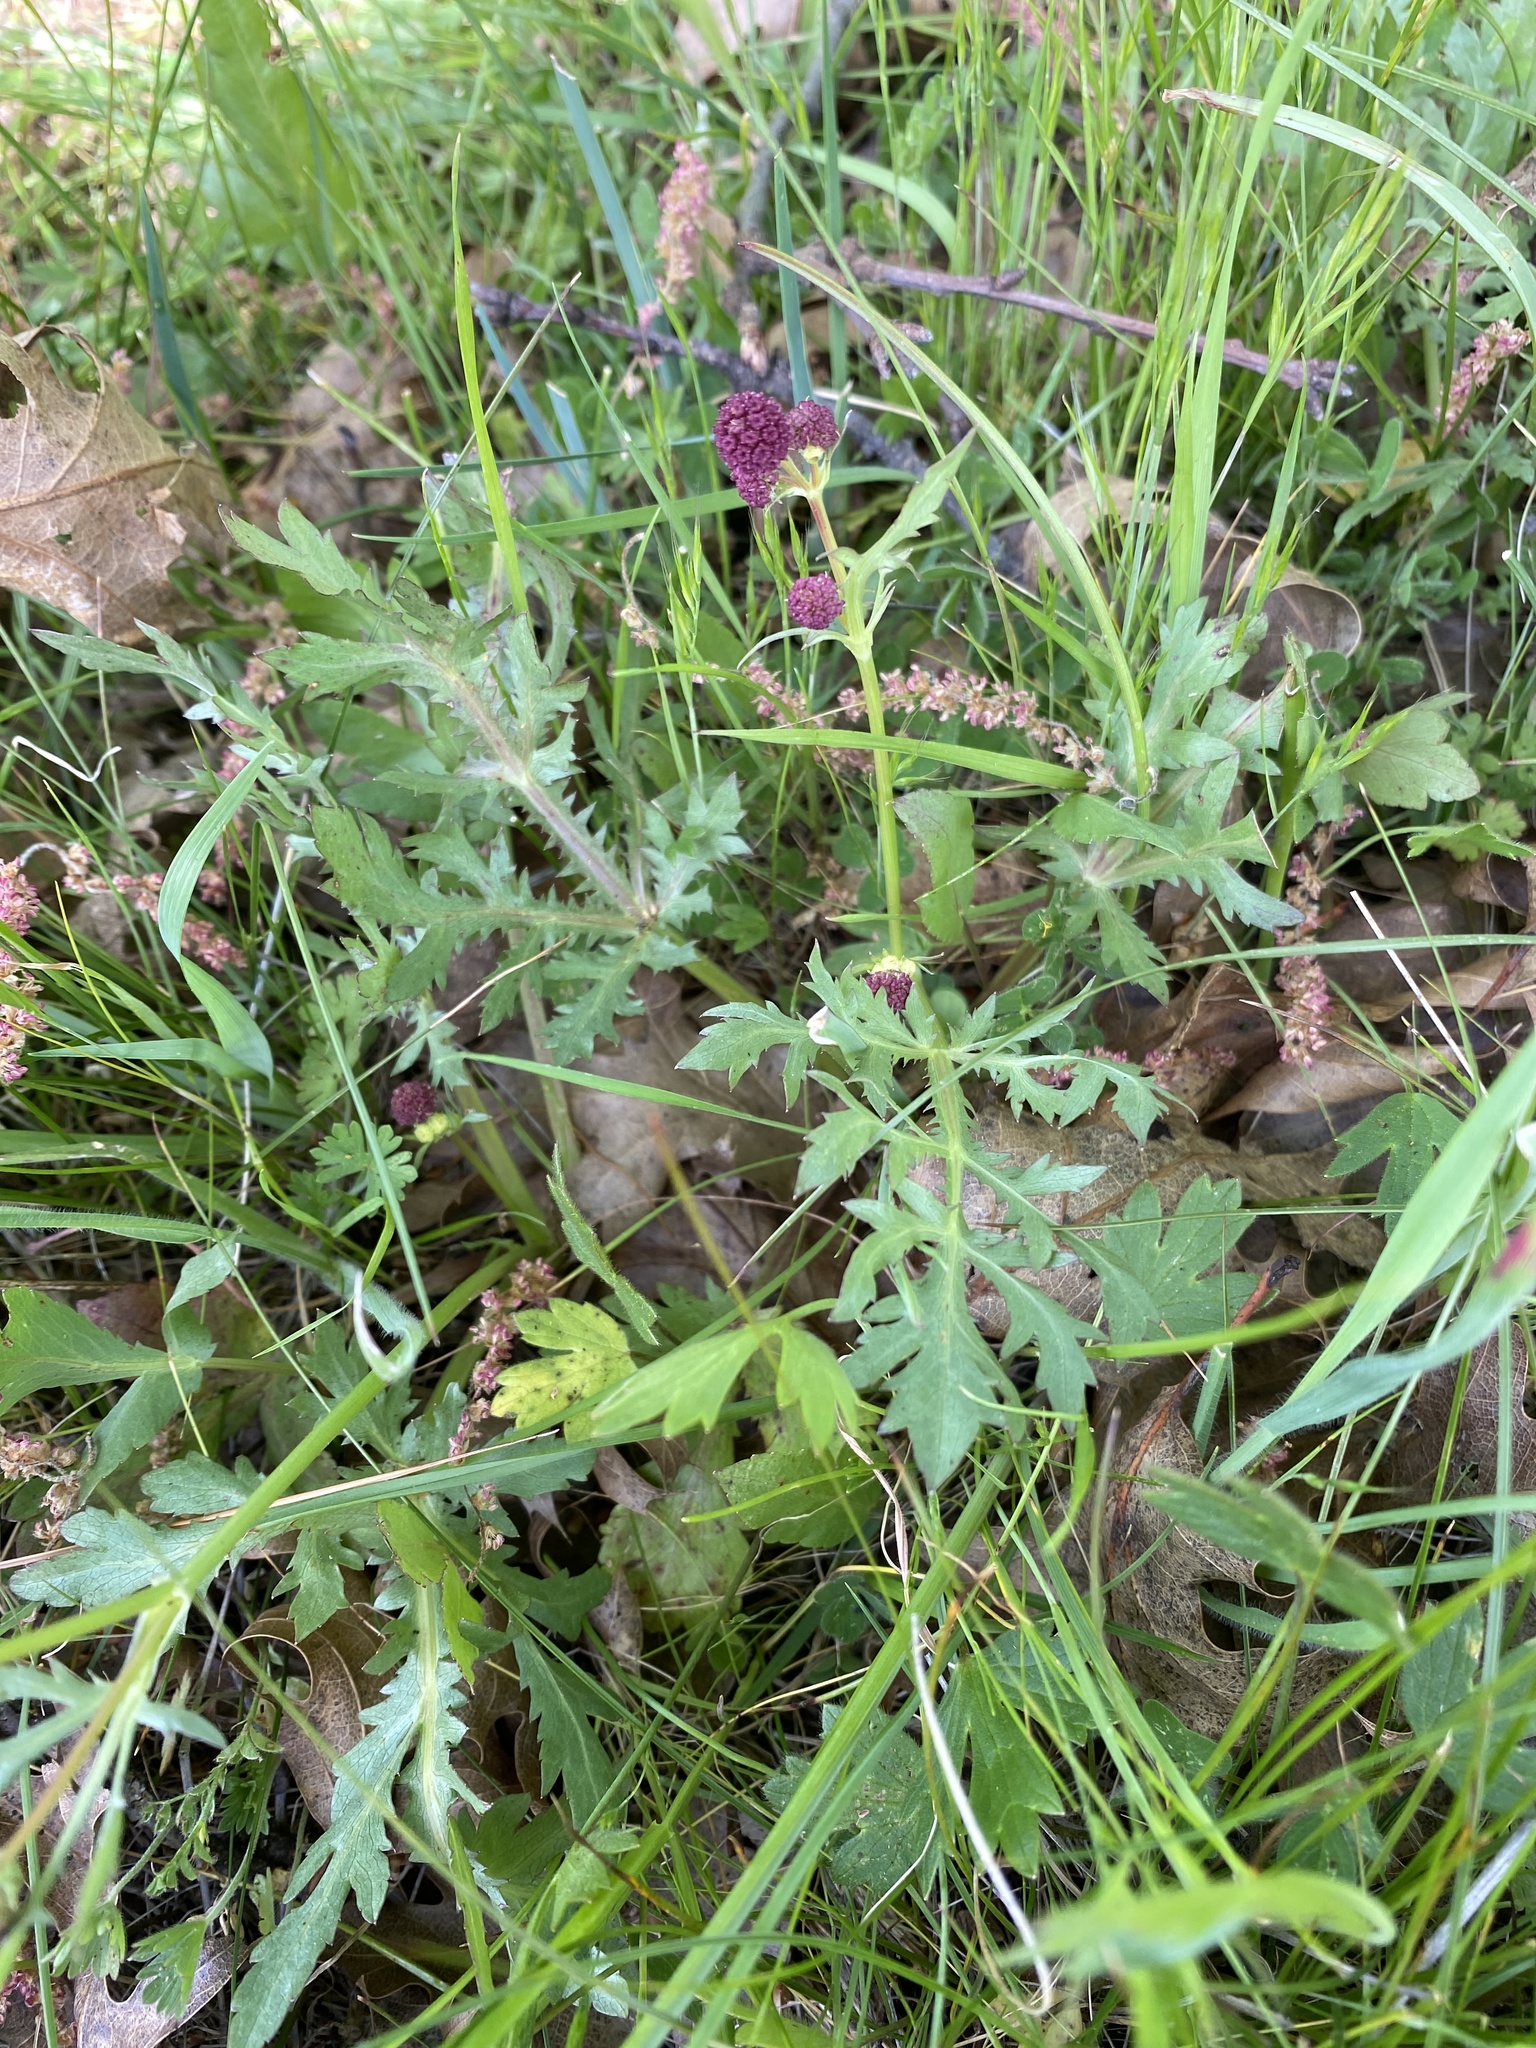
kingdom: Plantae
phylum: Tracheophyta
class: Magnoliopsida
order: Apiales
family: Apiaceae
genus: Sanicula
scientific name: Sanicula bipinnatifida
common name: Shoe-buttons
